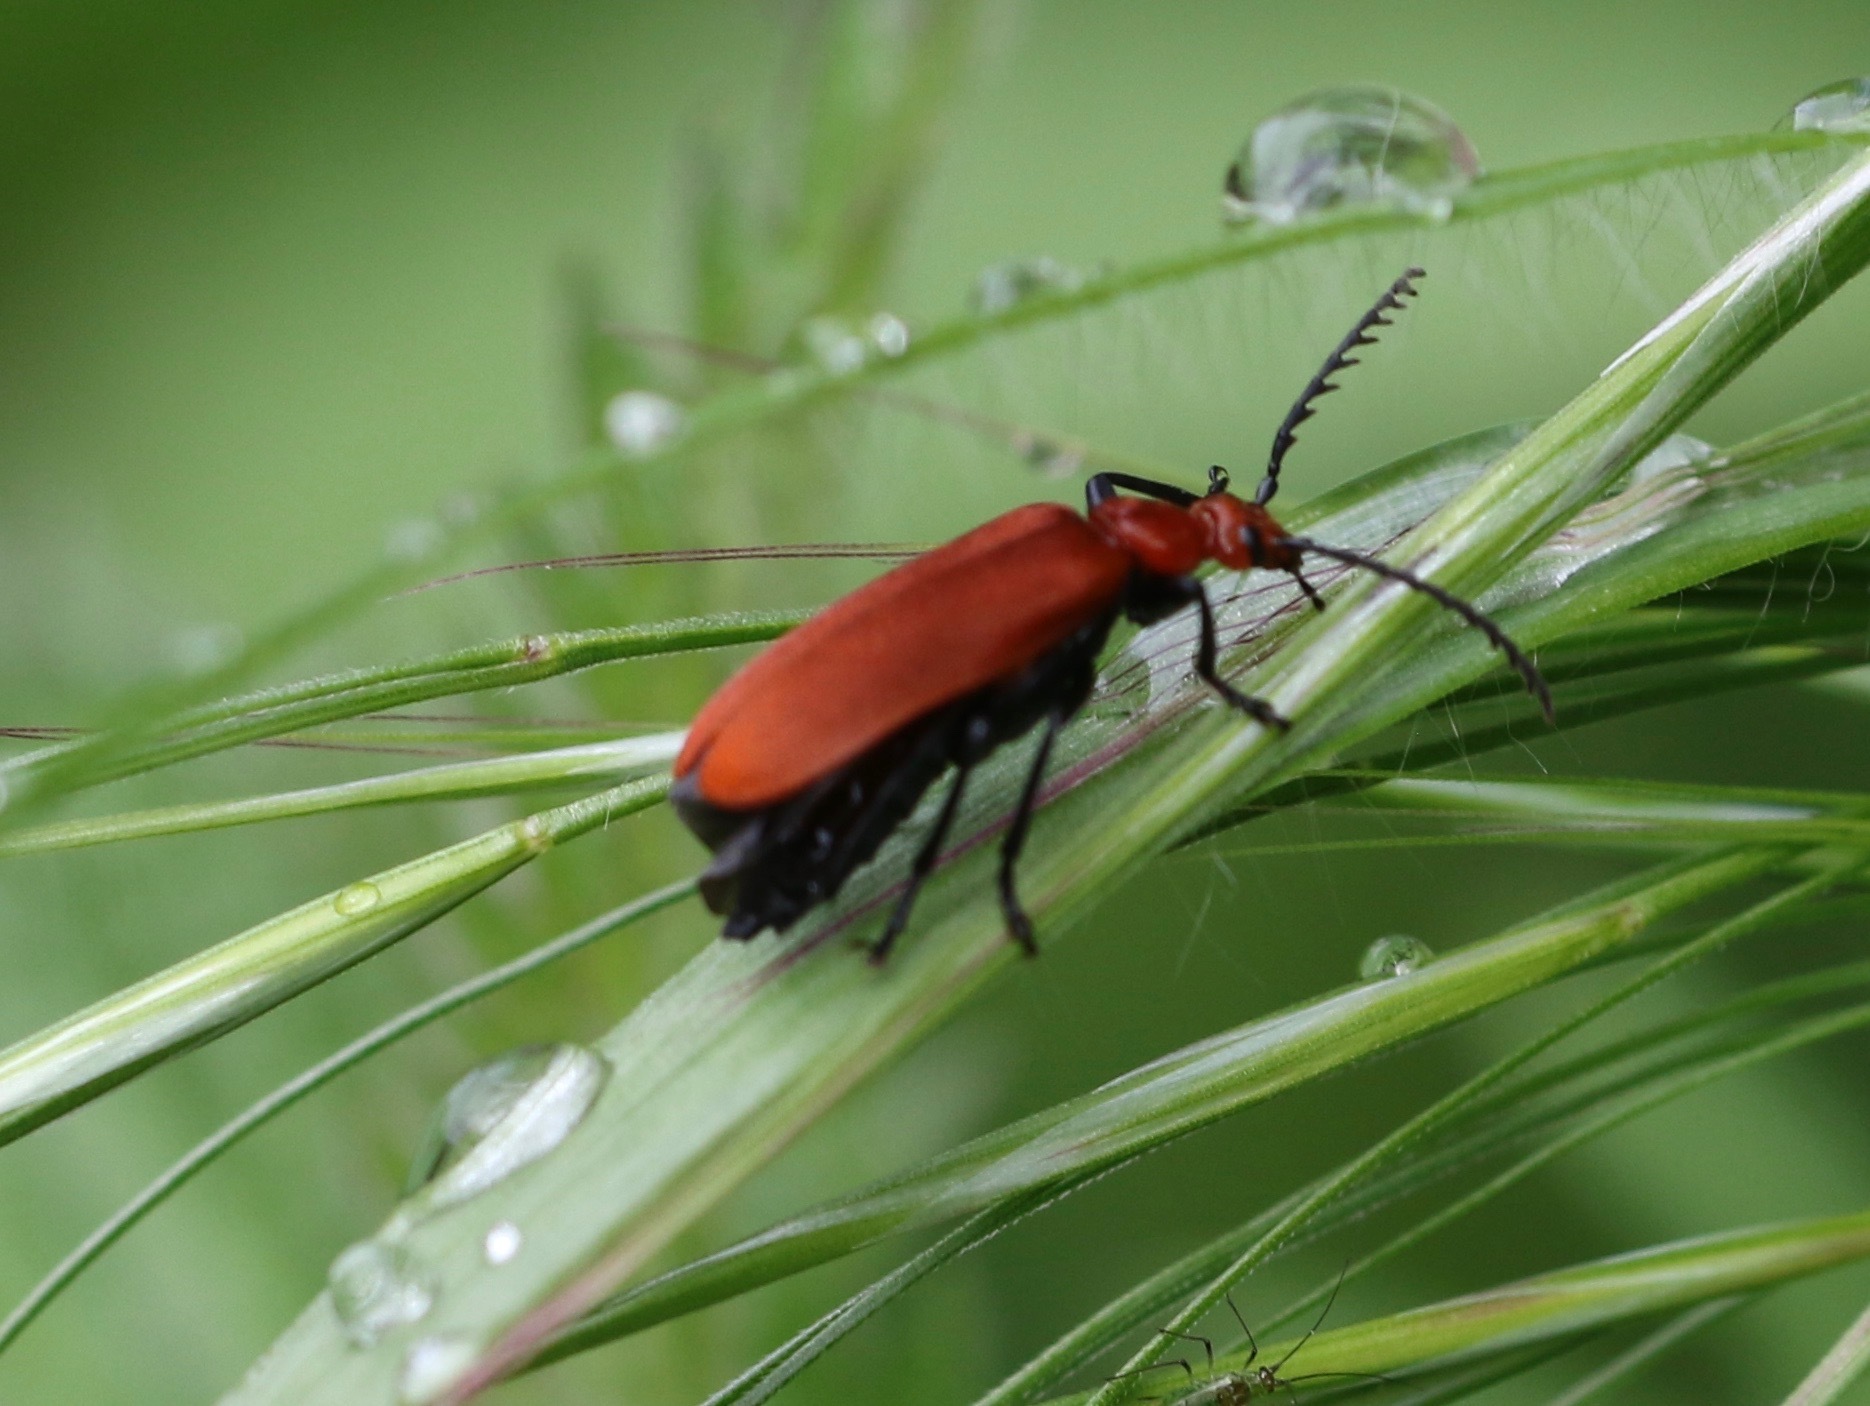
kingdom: Animalia
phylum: Arthropoda
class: Insecta
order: Coleoptera
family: Pyrochroidae
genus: Pyrochroa
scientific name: Pyrochroa serraticornis
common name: Red-headed cardinal beetle
